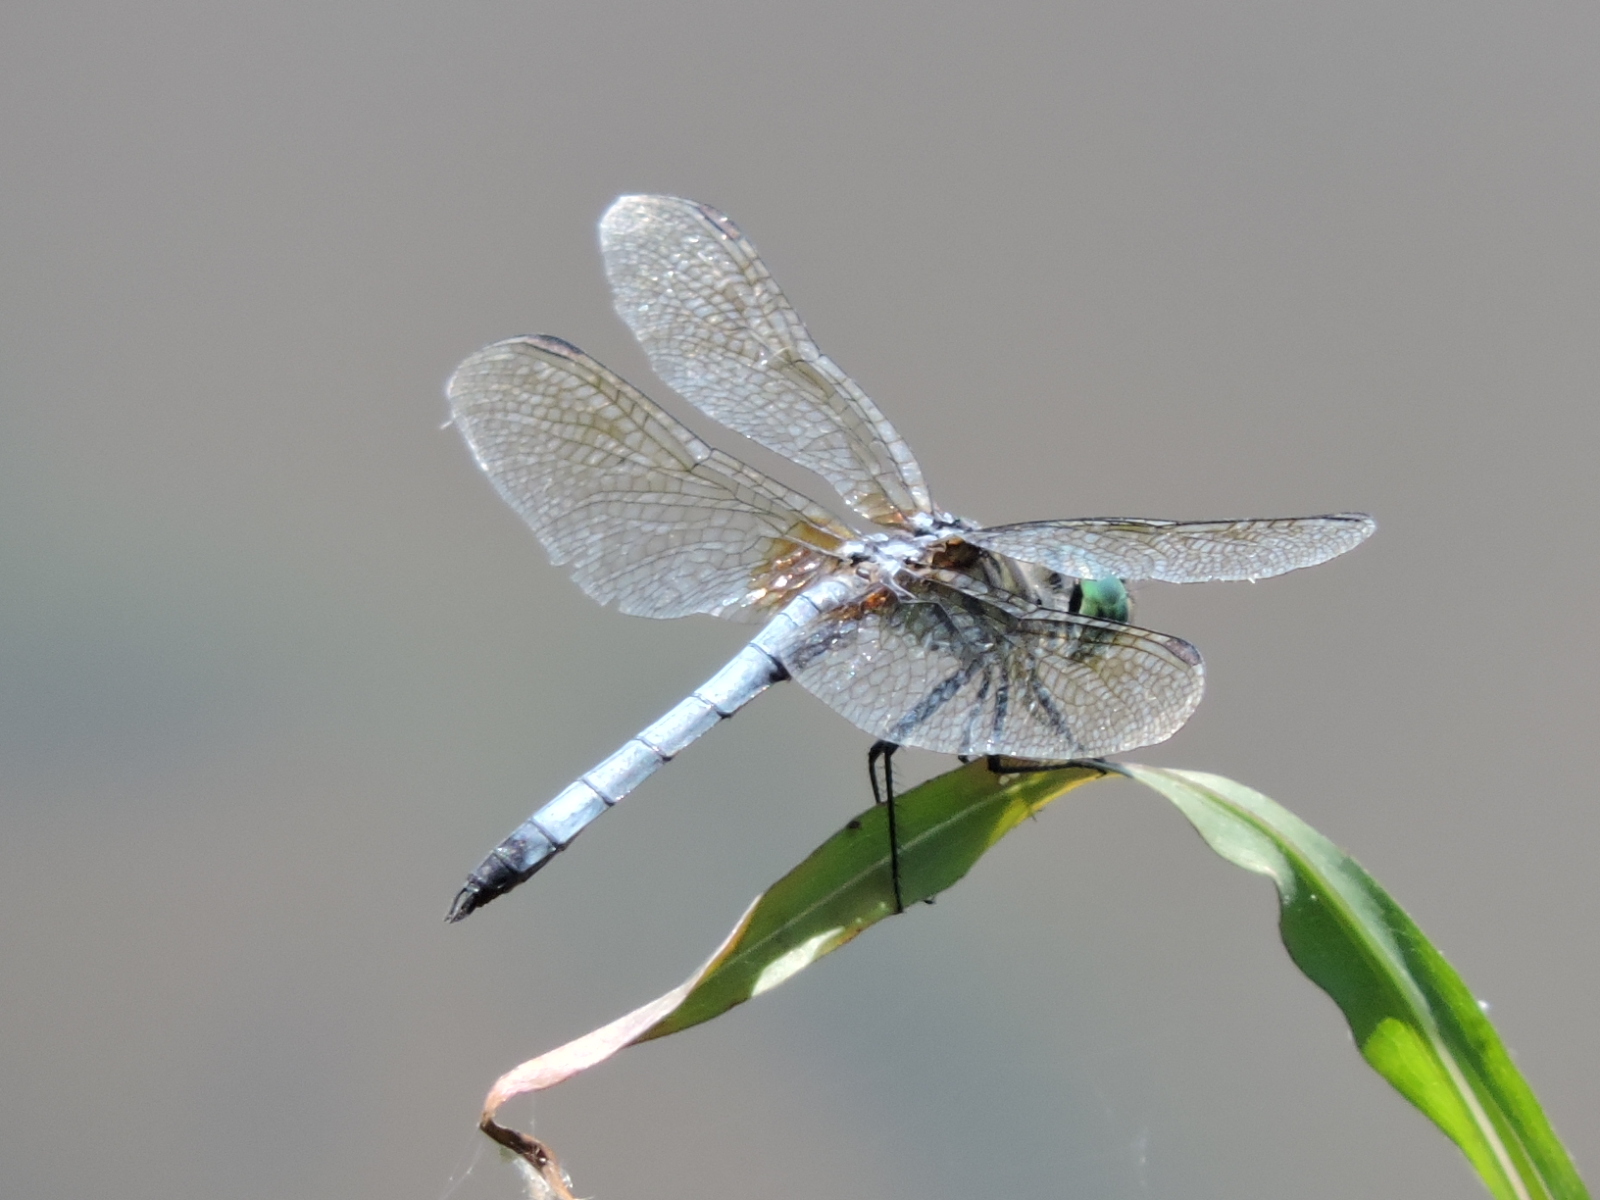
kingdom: Animalia
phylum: Arthropoda
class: Insecta
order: Odonata
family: Libellulidae
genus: Pachydiplax
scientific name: Pachydiplax longipennis
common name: Blue dasher
